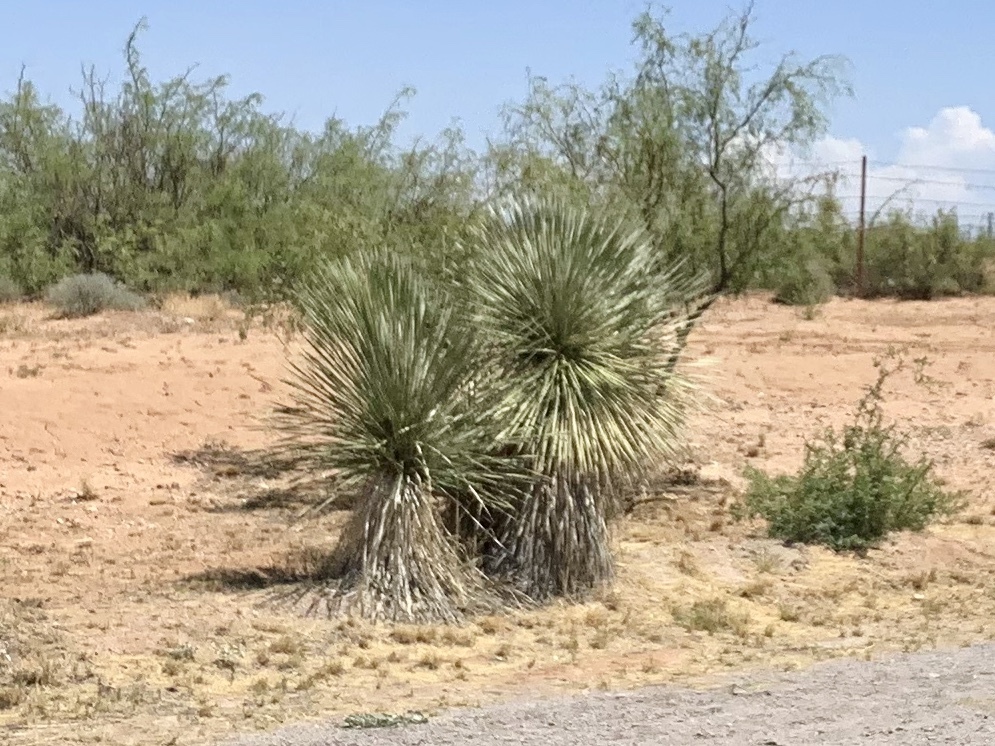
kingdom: Plantae
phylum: Tracheophyta
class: Liliopsida
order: Asparagales
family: Asparagaceae
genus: Yucca
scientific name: Yucca elata
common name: Palmella
